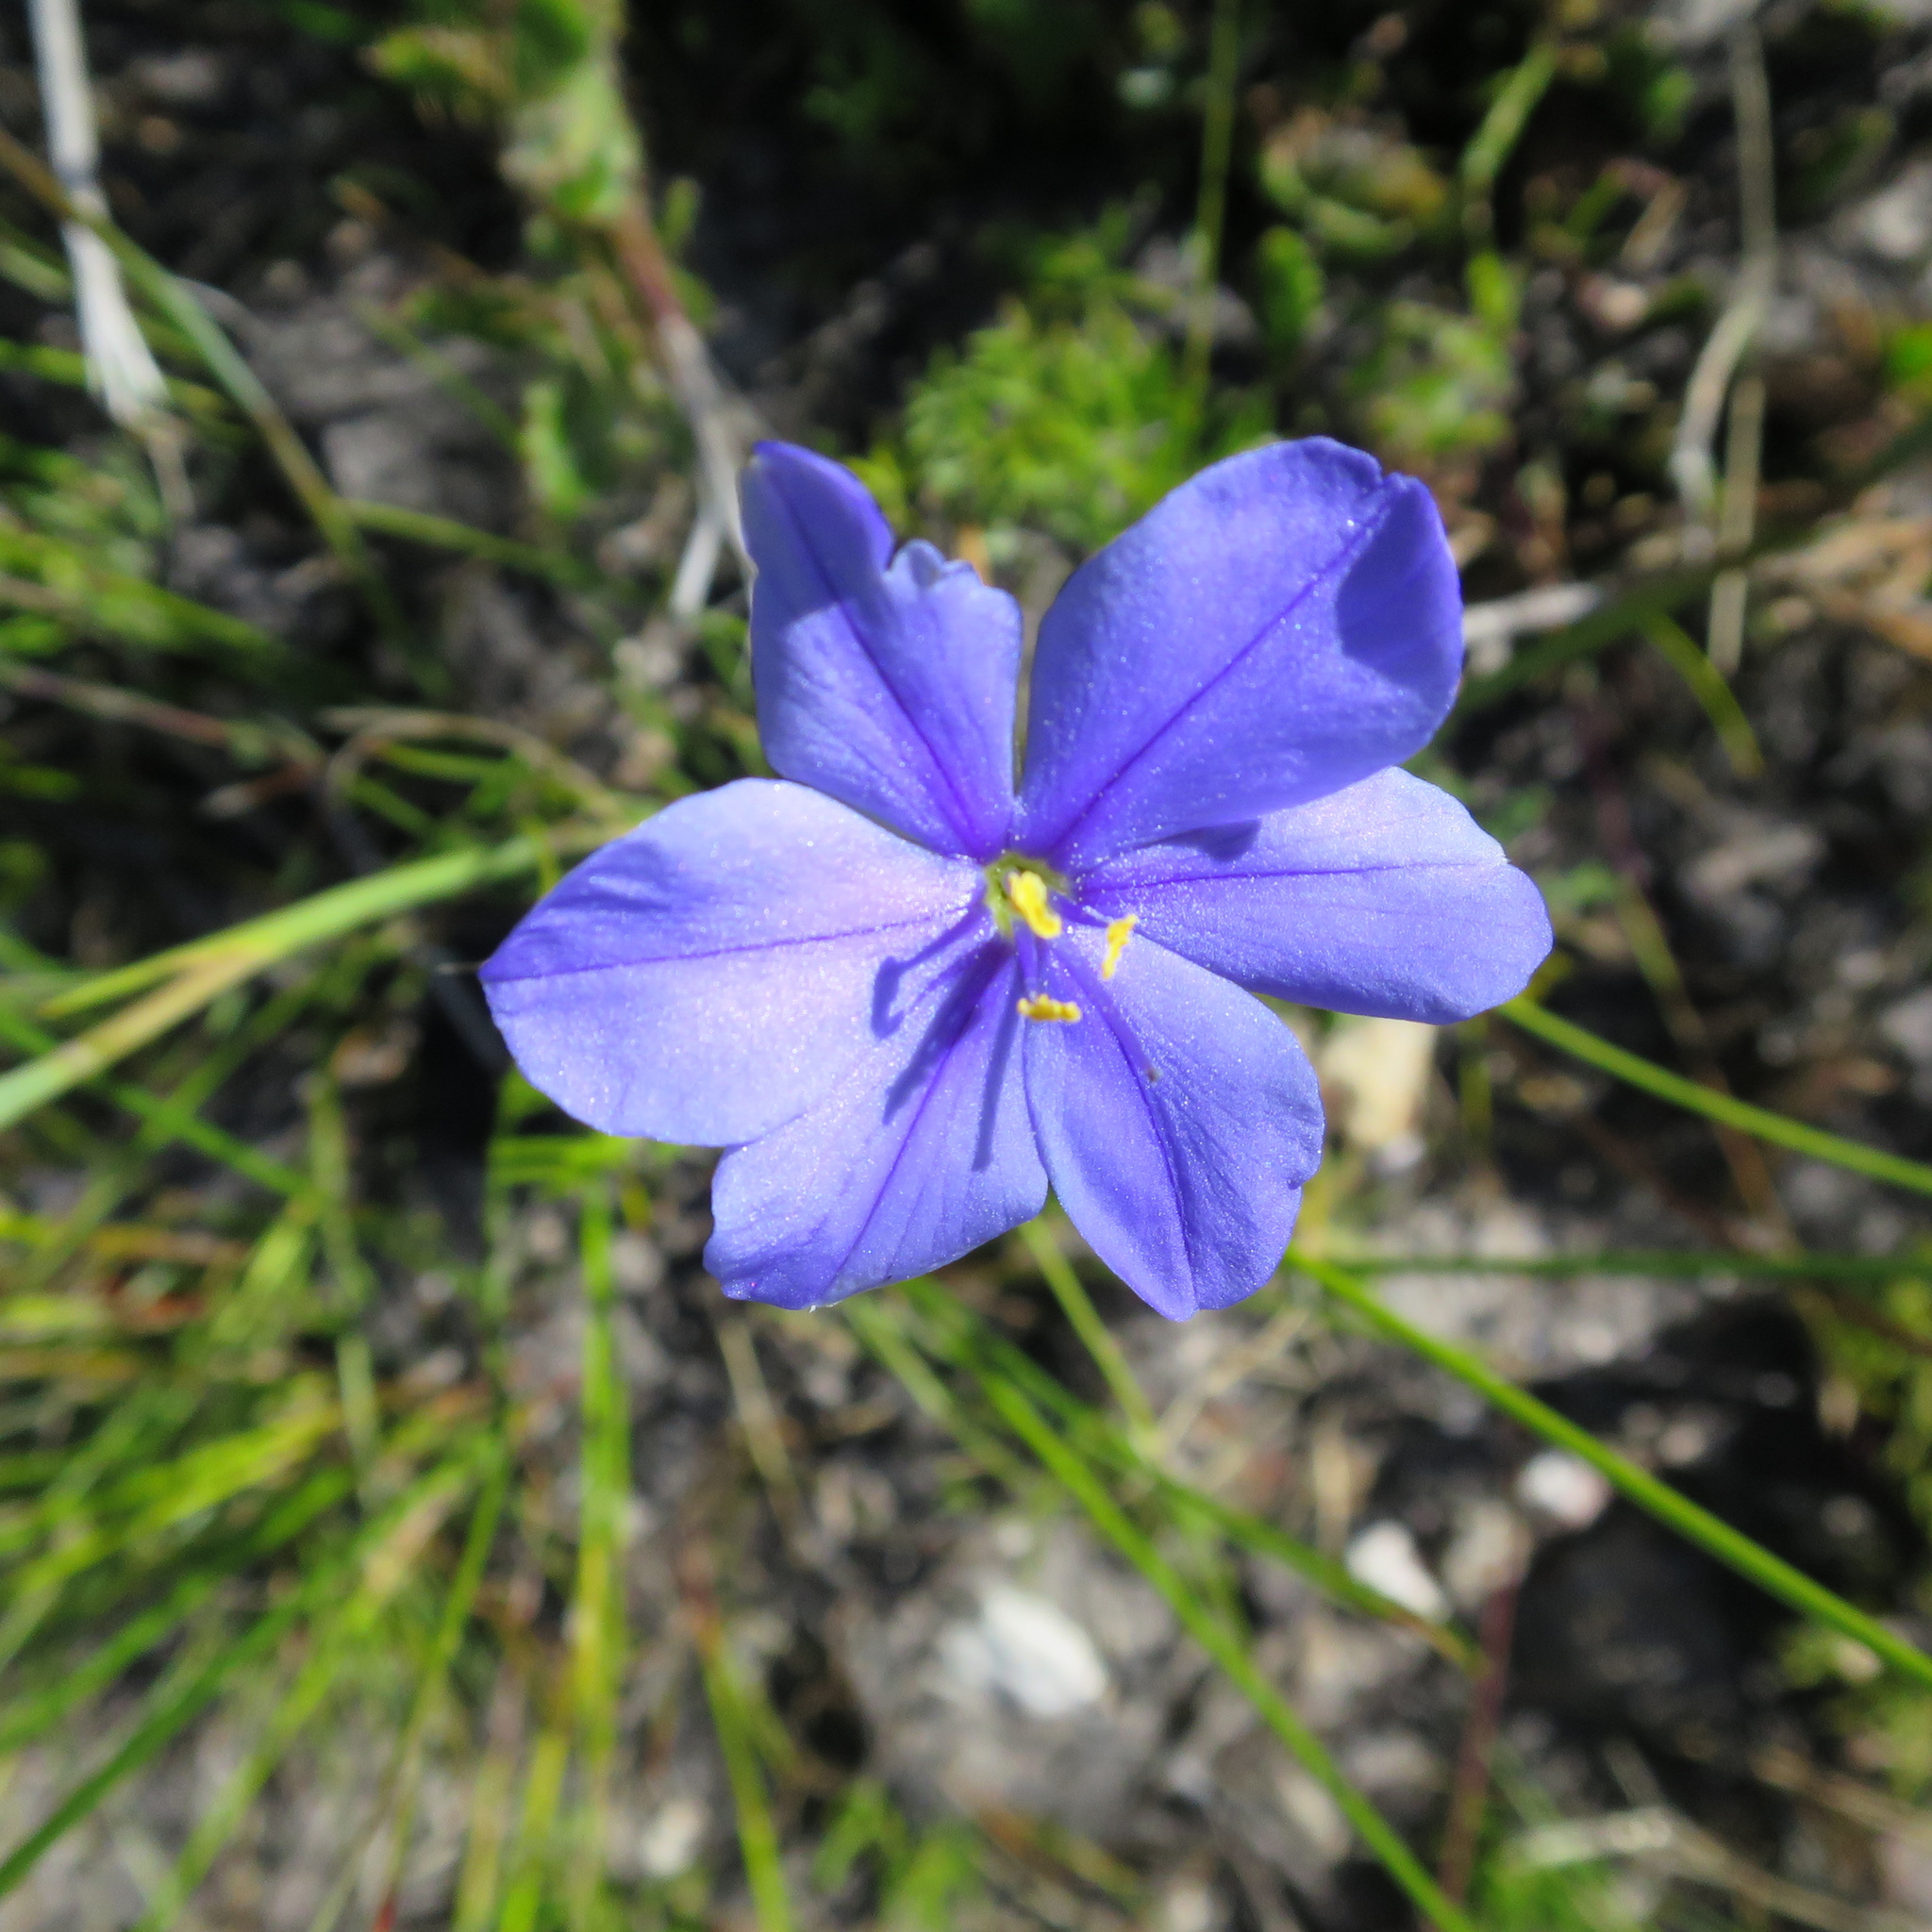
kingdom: Plantae
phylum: Tracheophyta
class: Liliopsida
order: Asparagales
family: Iridaceae
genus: Aristea
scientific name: Aristea africana
